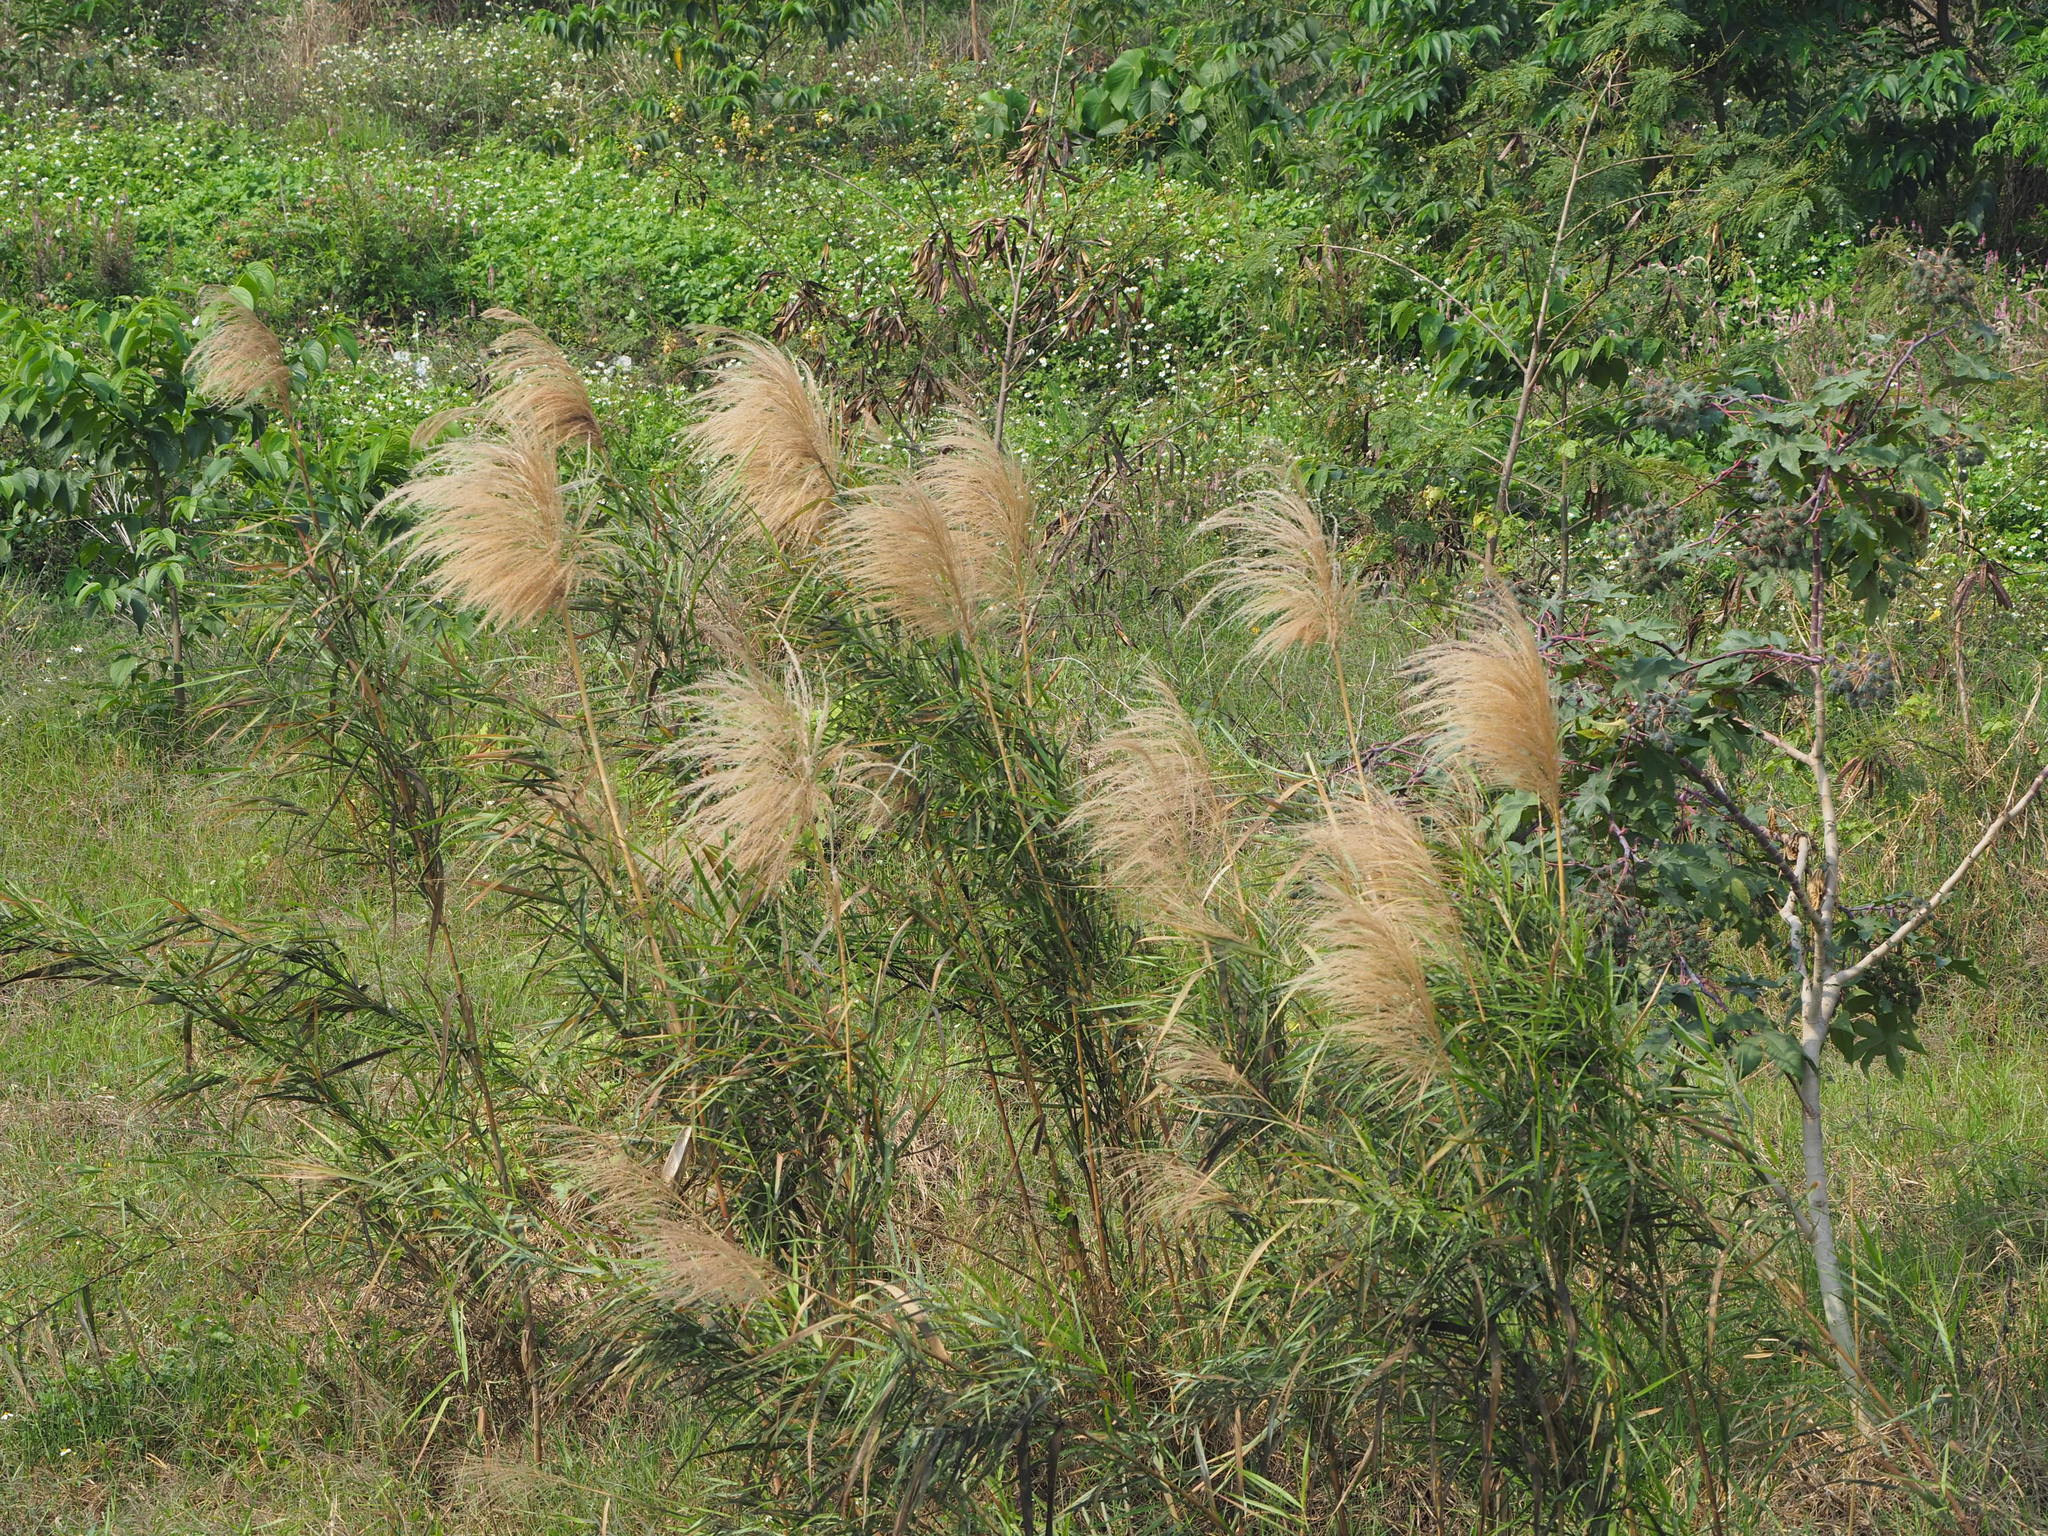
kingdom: Plantae
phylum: Tracheophyta
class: Liliopsida
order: Poales
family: Poaceae
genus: Phragmites
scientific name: Phragmites karka
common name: Tropical reed
